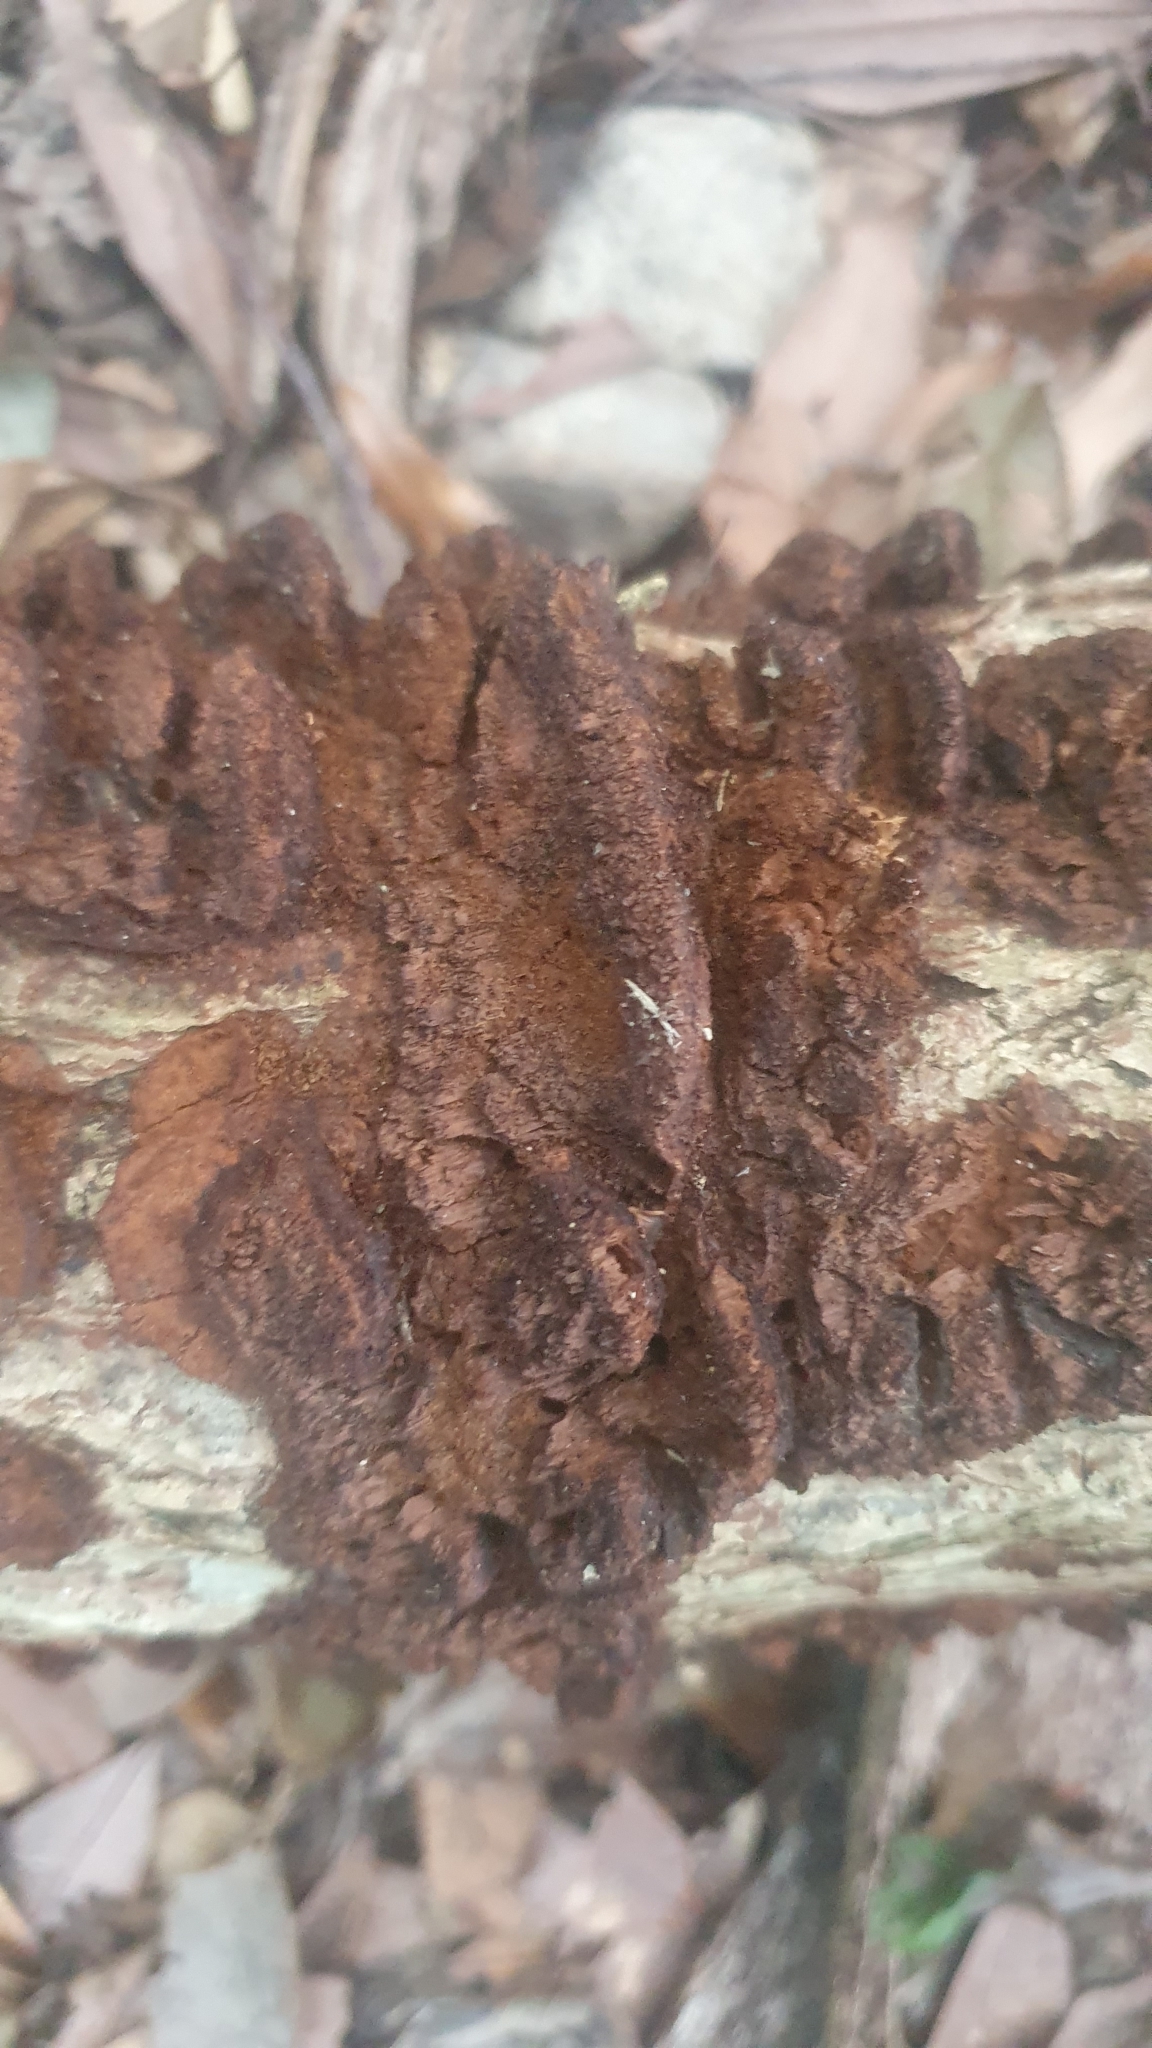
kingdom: Fungi
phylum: Basidiomycota
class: Agaricomycetes
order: Hymenochaetales
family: Hymenochaetaceae
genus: Phellinus
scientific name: Phellinus gilvus
